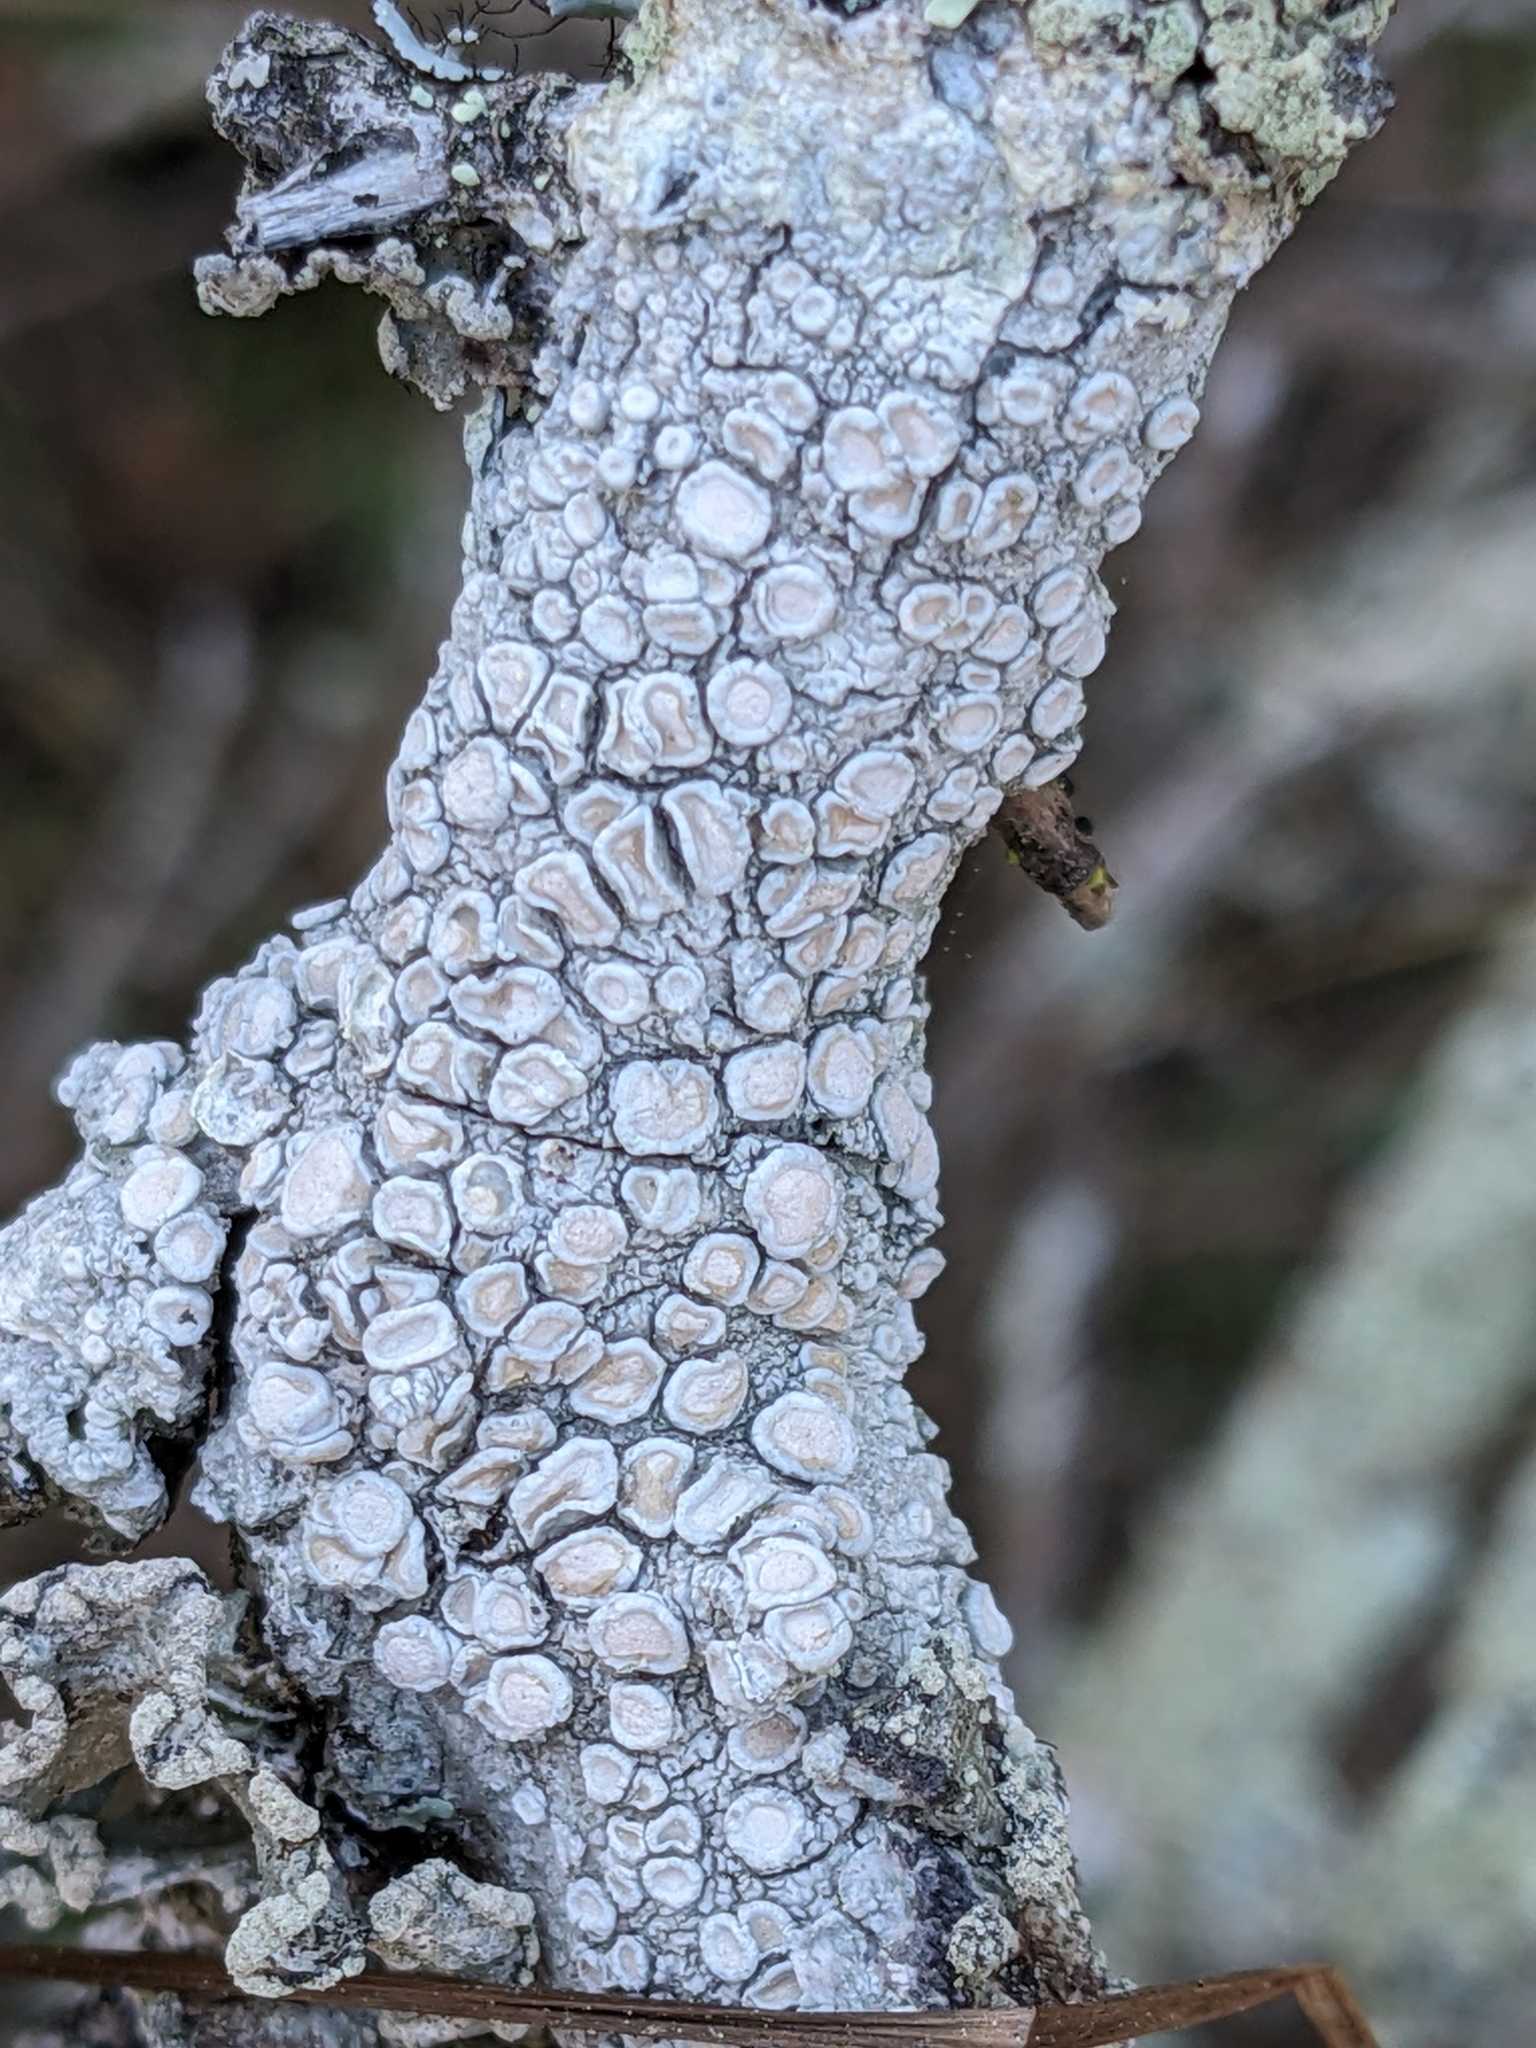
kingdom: Fungi
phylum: Ascomycota
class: Lecanoromycetes
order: Pertusariales
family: Ochrolechiaceae
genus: Ochrolechia
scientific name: Ochrolechia africana
